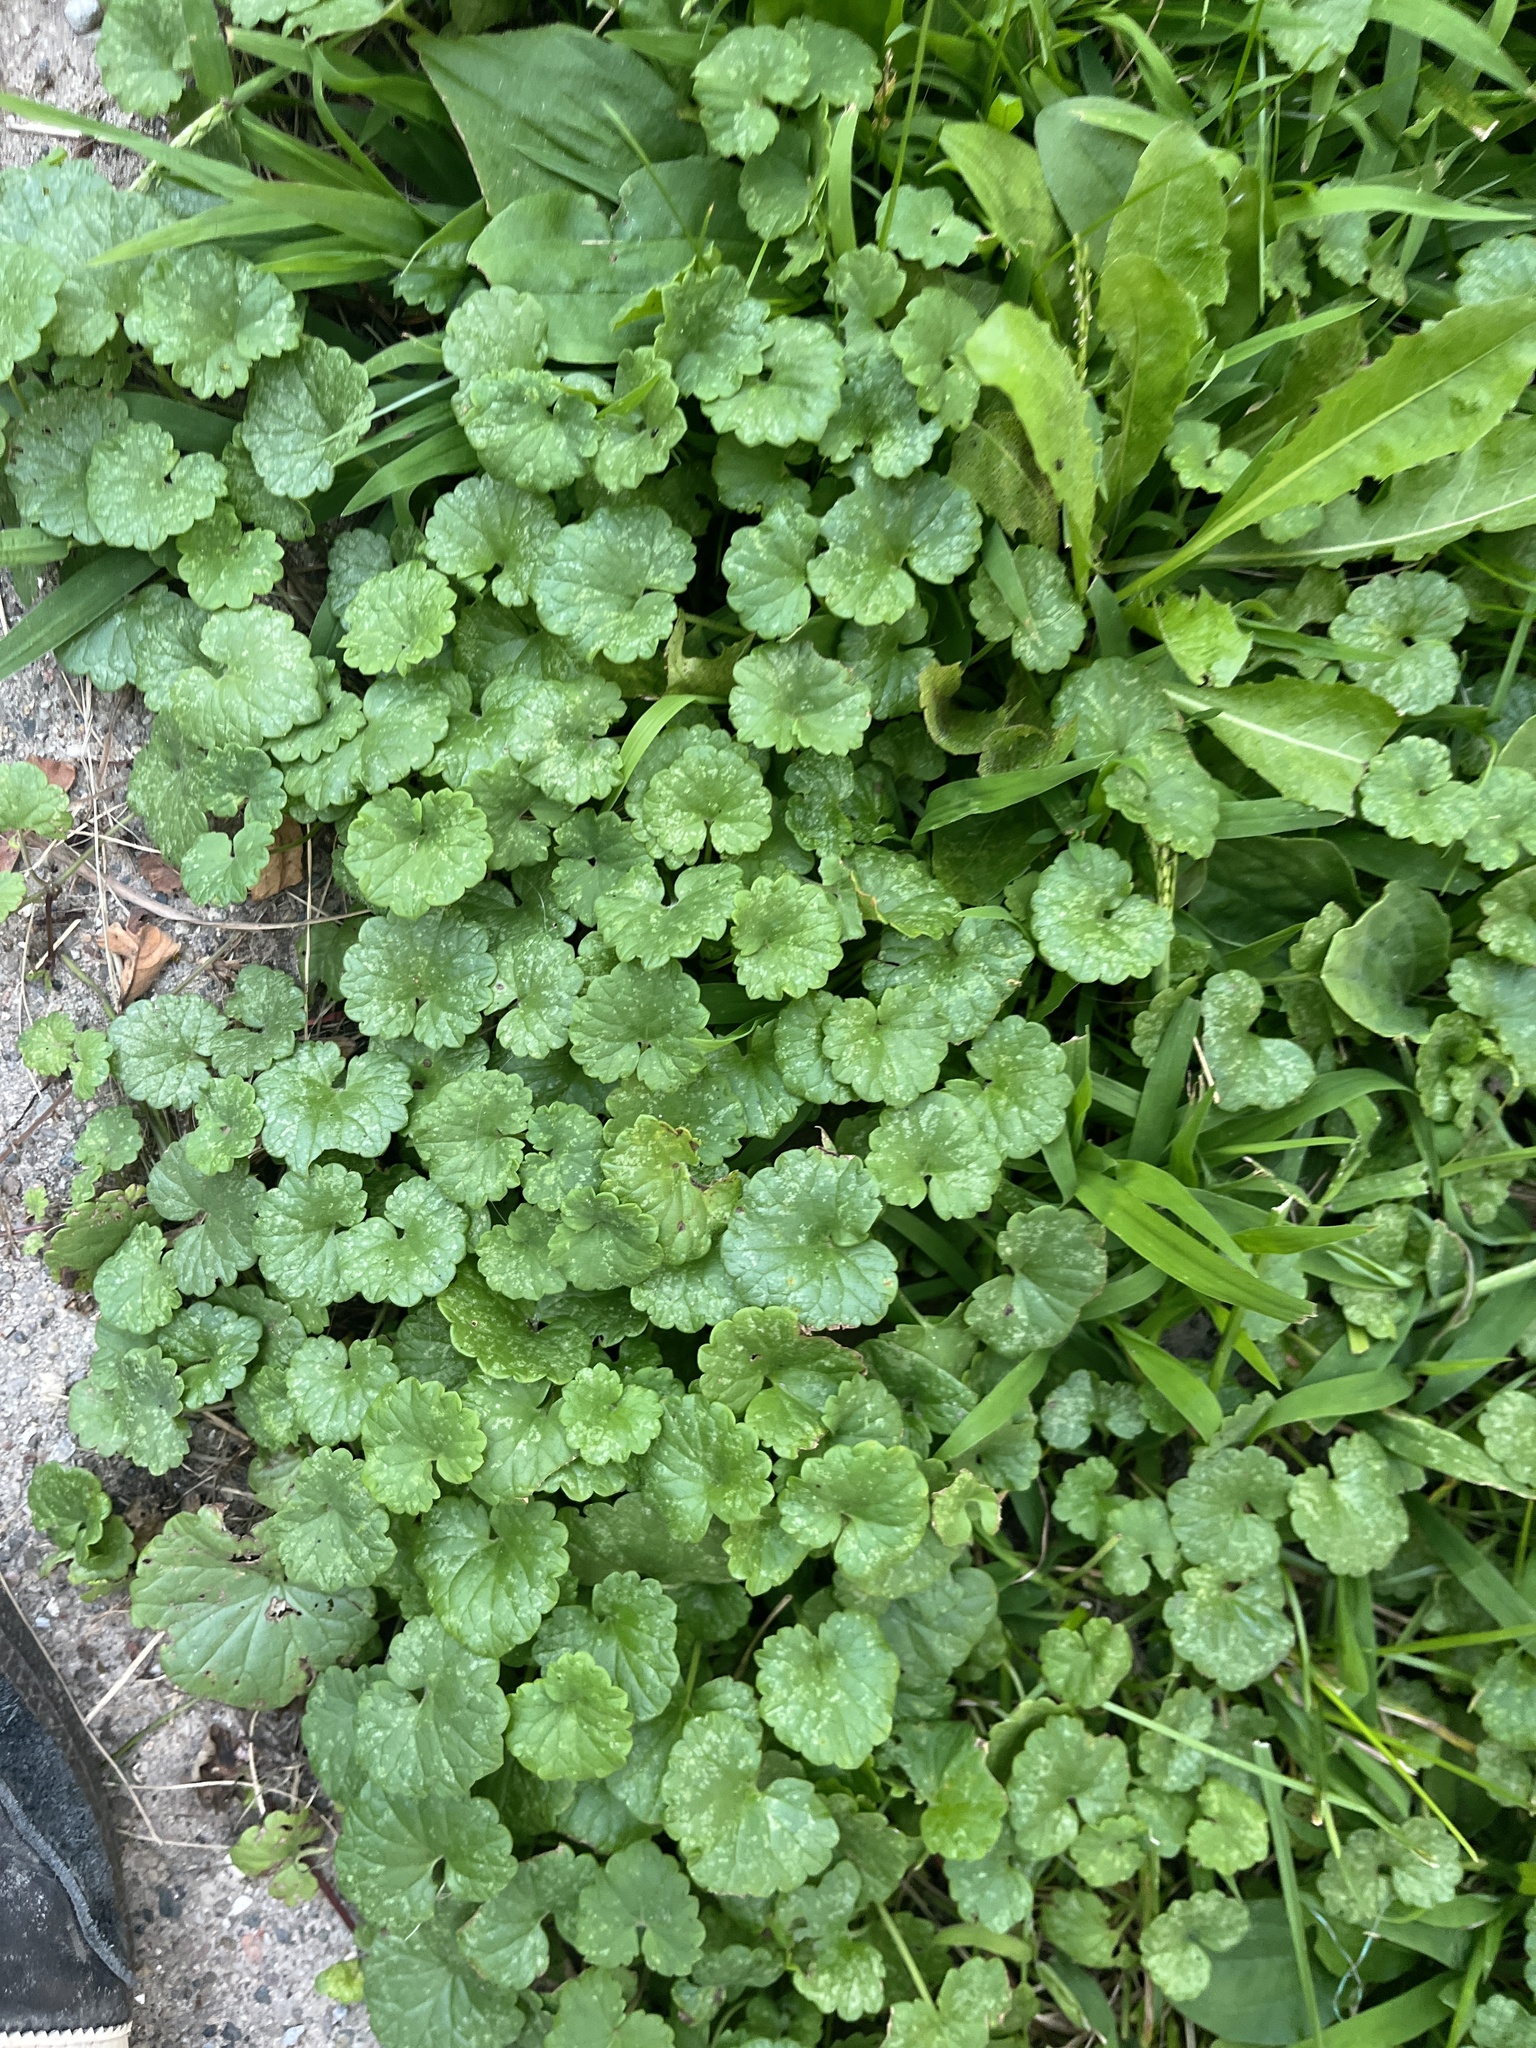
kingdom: Plantae
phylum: Tracheophyta
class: Magnoliopsida
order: Lamiales
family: Lamiaceae
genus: Glechoma
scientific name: Glechoma hederacea
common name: Ground ivy
